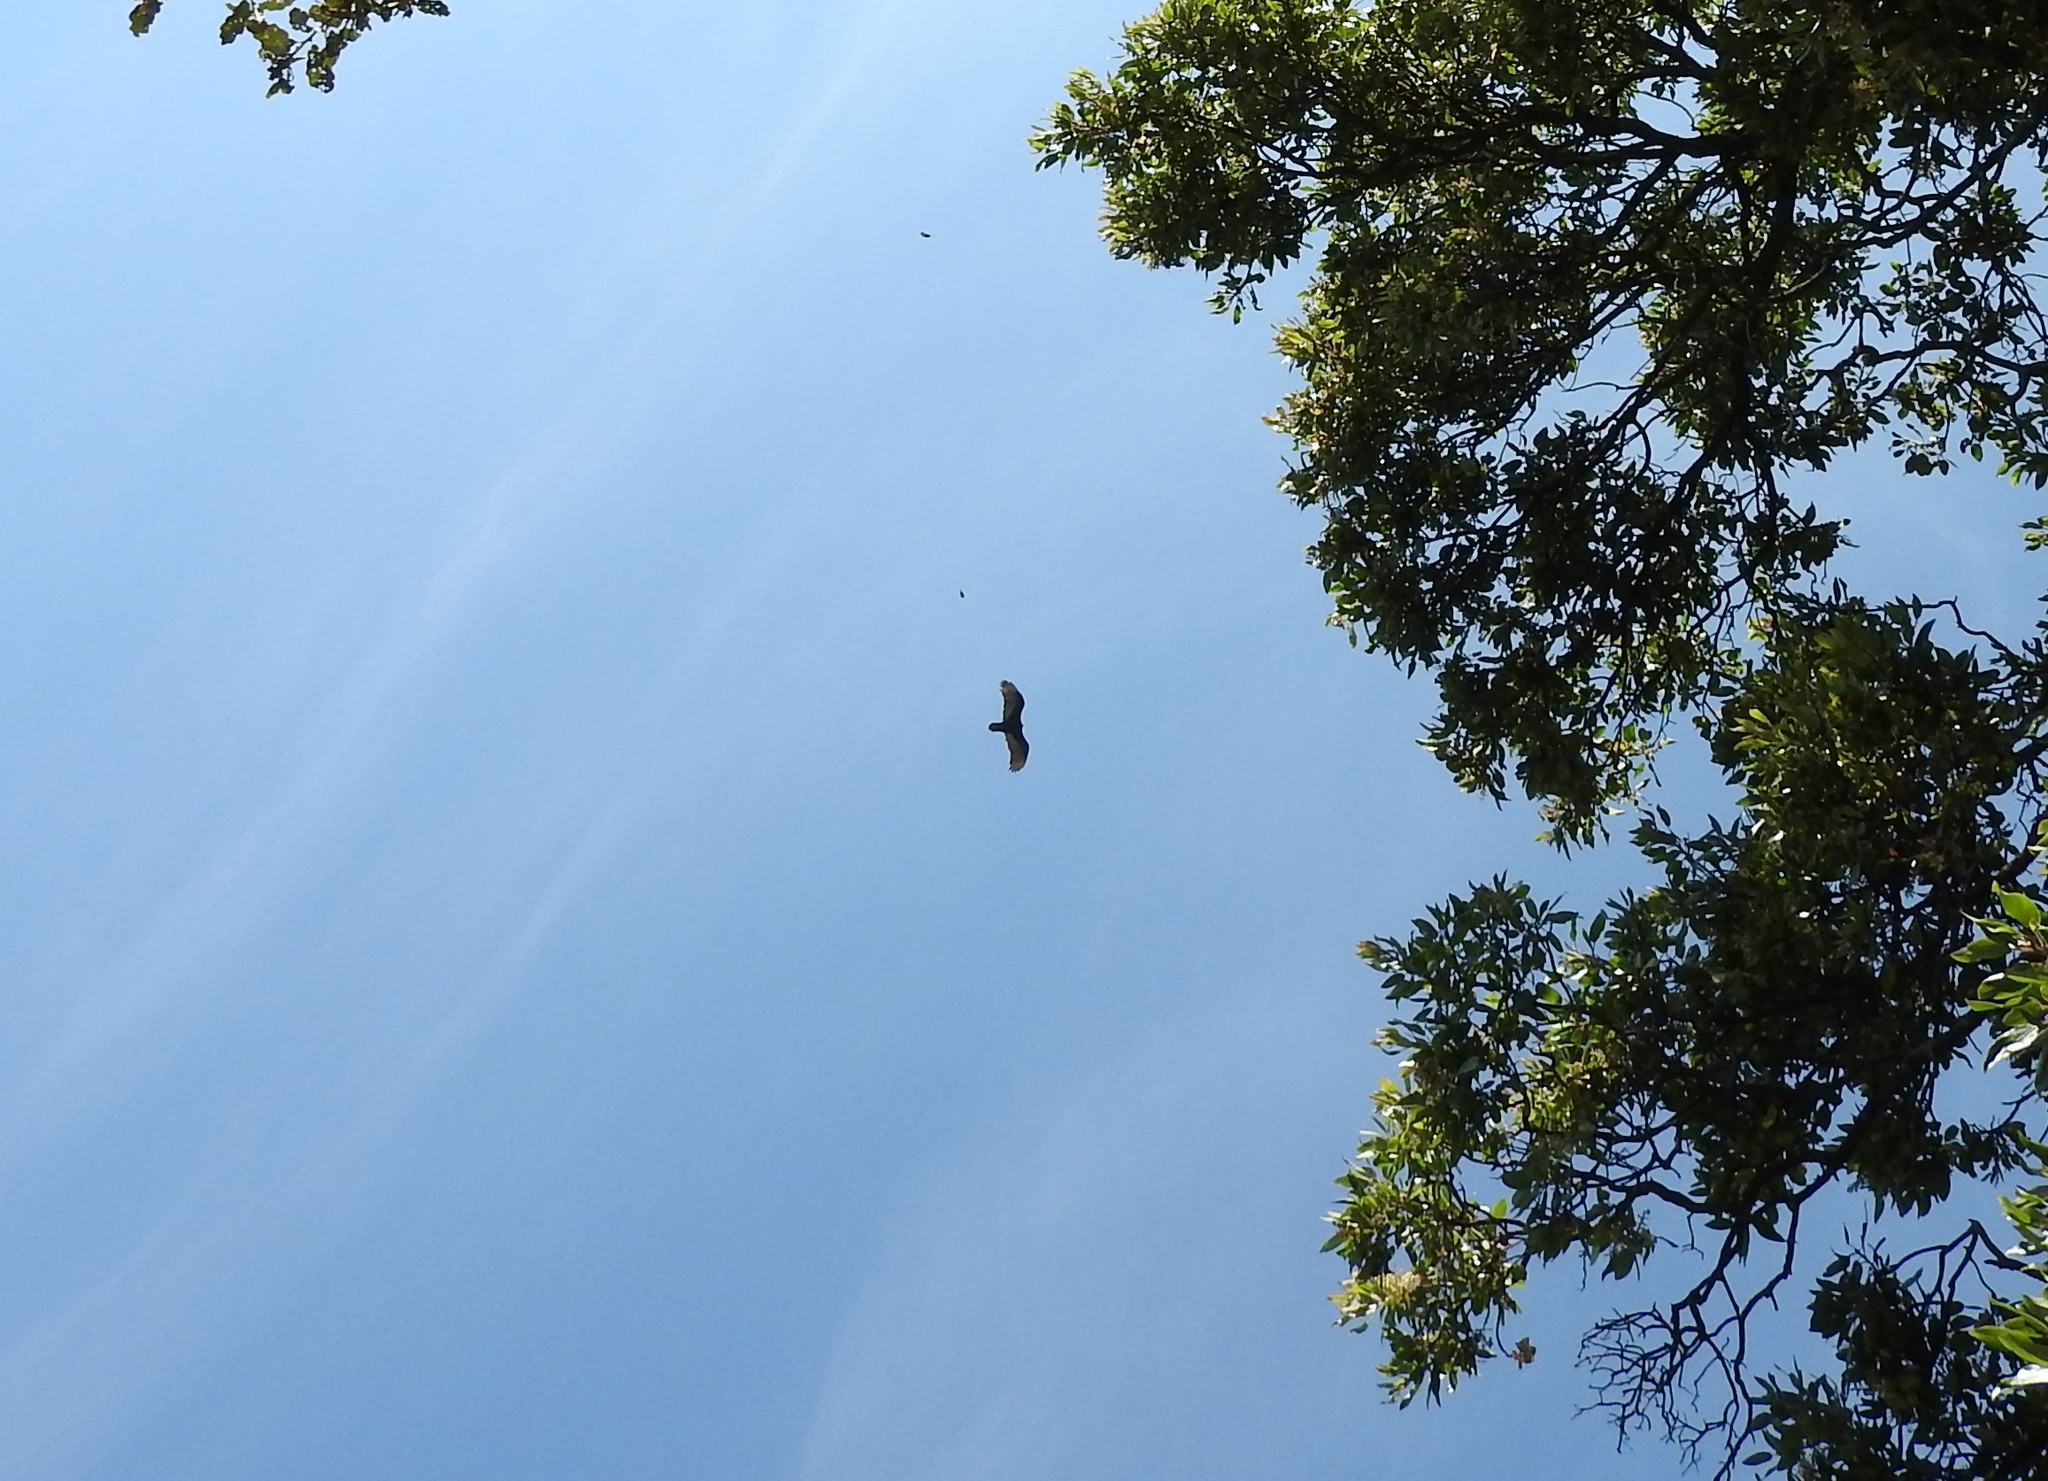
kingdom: Animalia
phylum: Chordata
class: Aves
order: Accipitriformes
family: Cathartidae
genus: Cathartes
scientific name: Cathartes aura
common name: Turkey vulture
